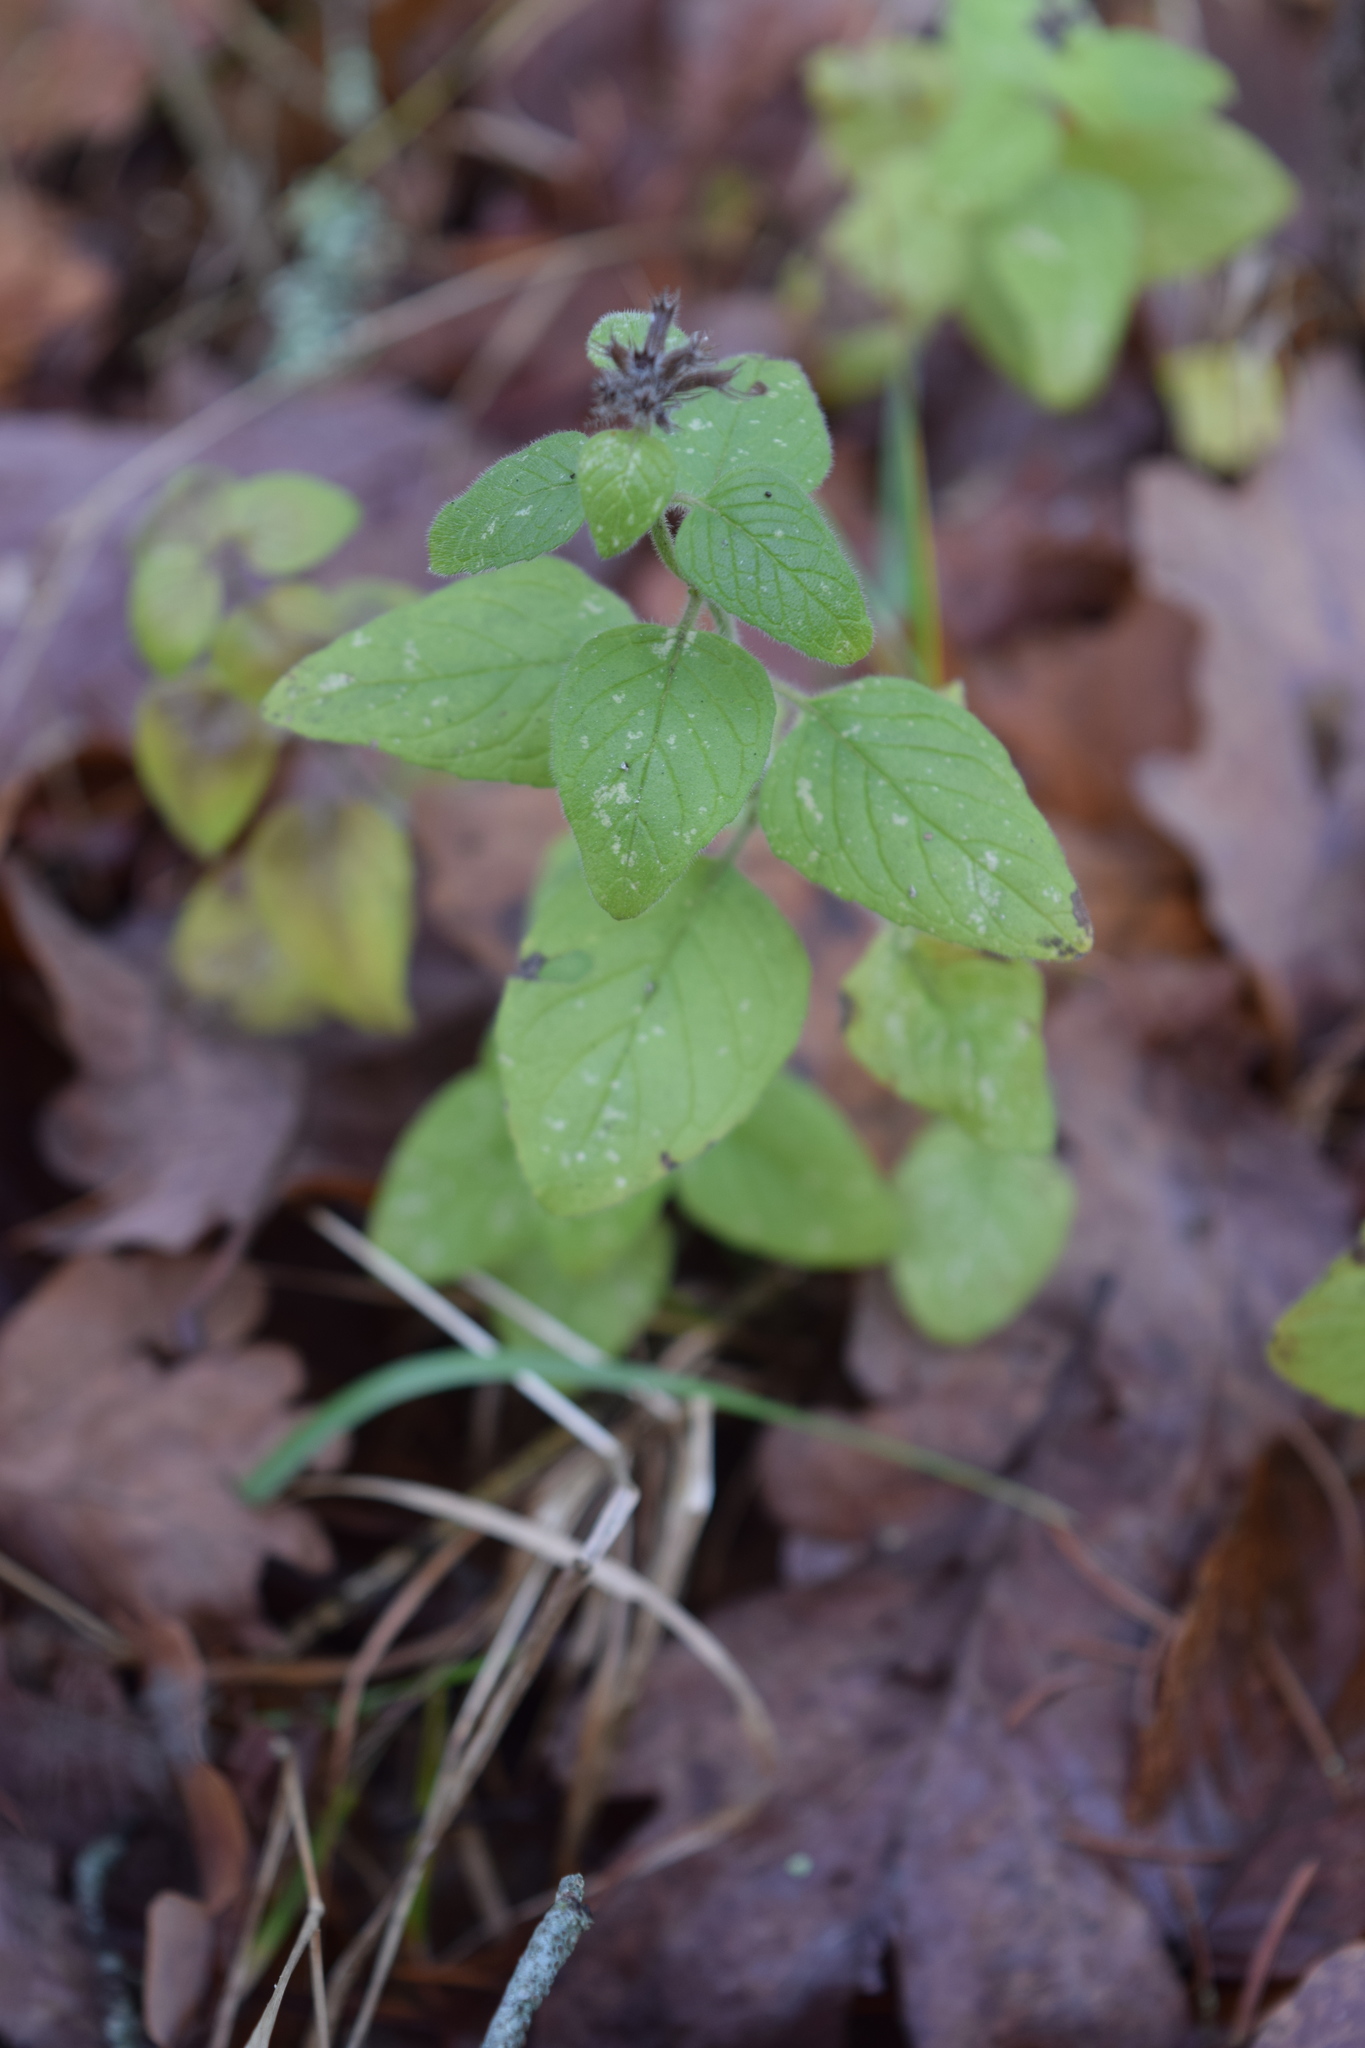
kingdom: Plantae
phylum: Tracheophyta
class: Magnoliopsida
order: Lamiales
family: Lamiaceae
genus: Clinopodium
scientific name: Clinopodium vulgare
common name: Wild basil
